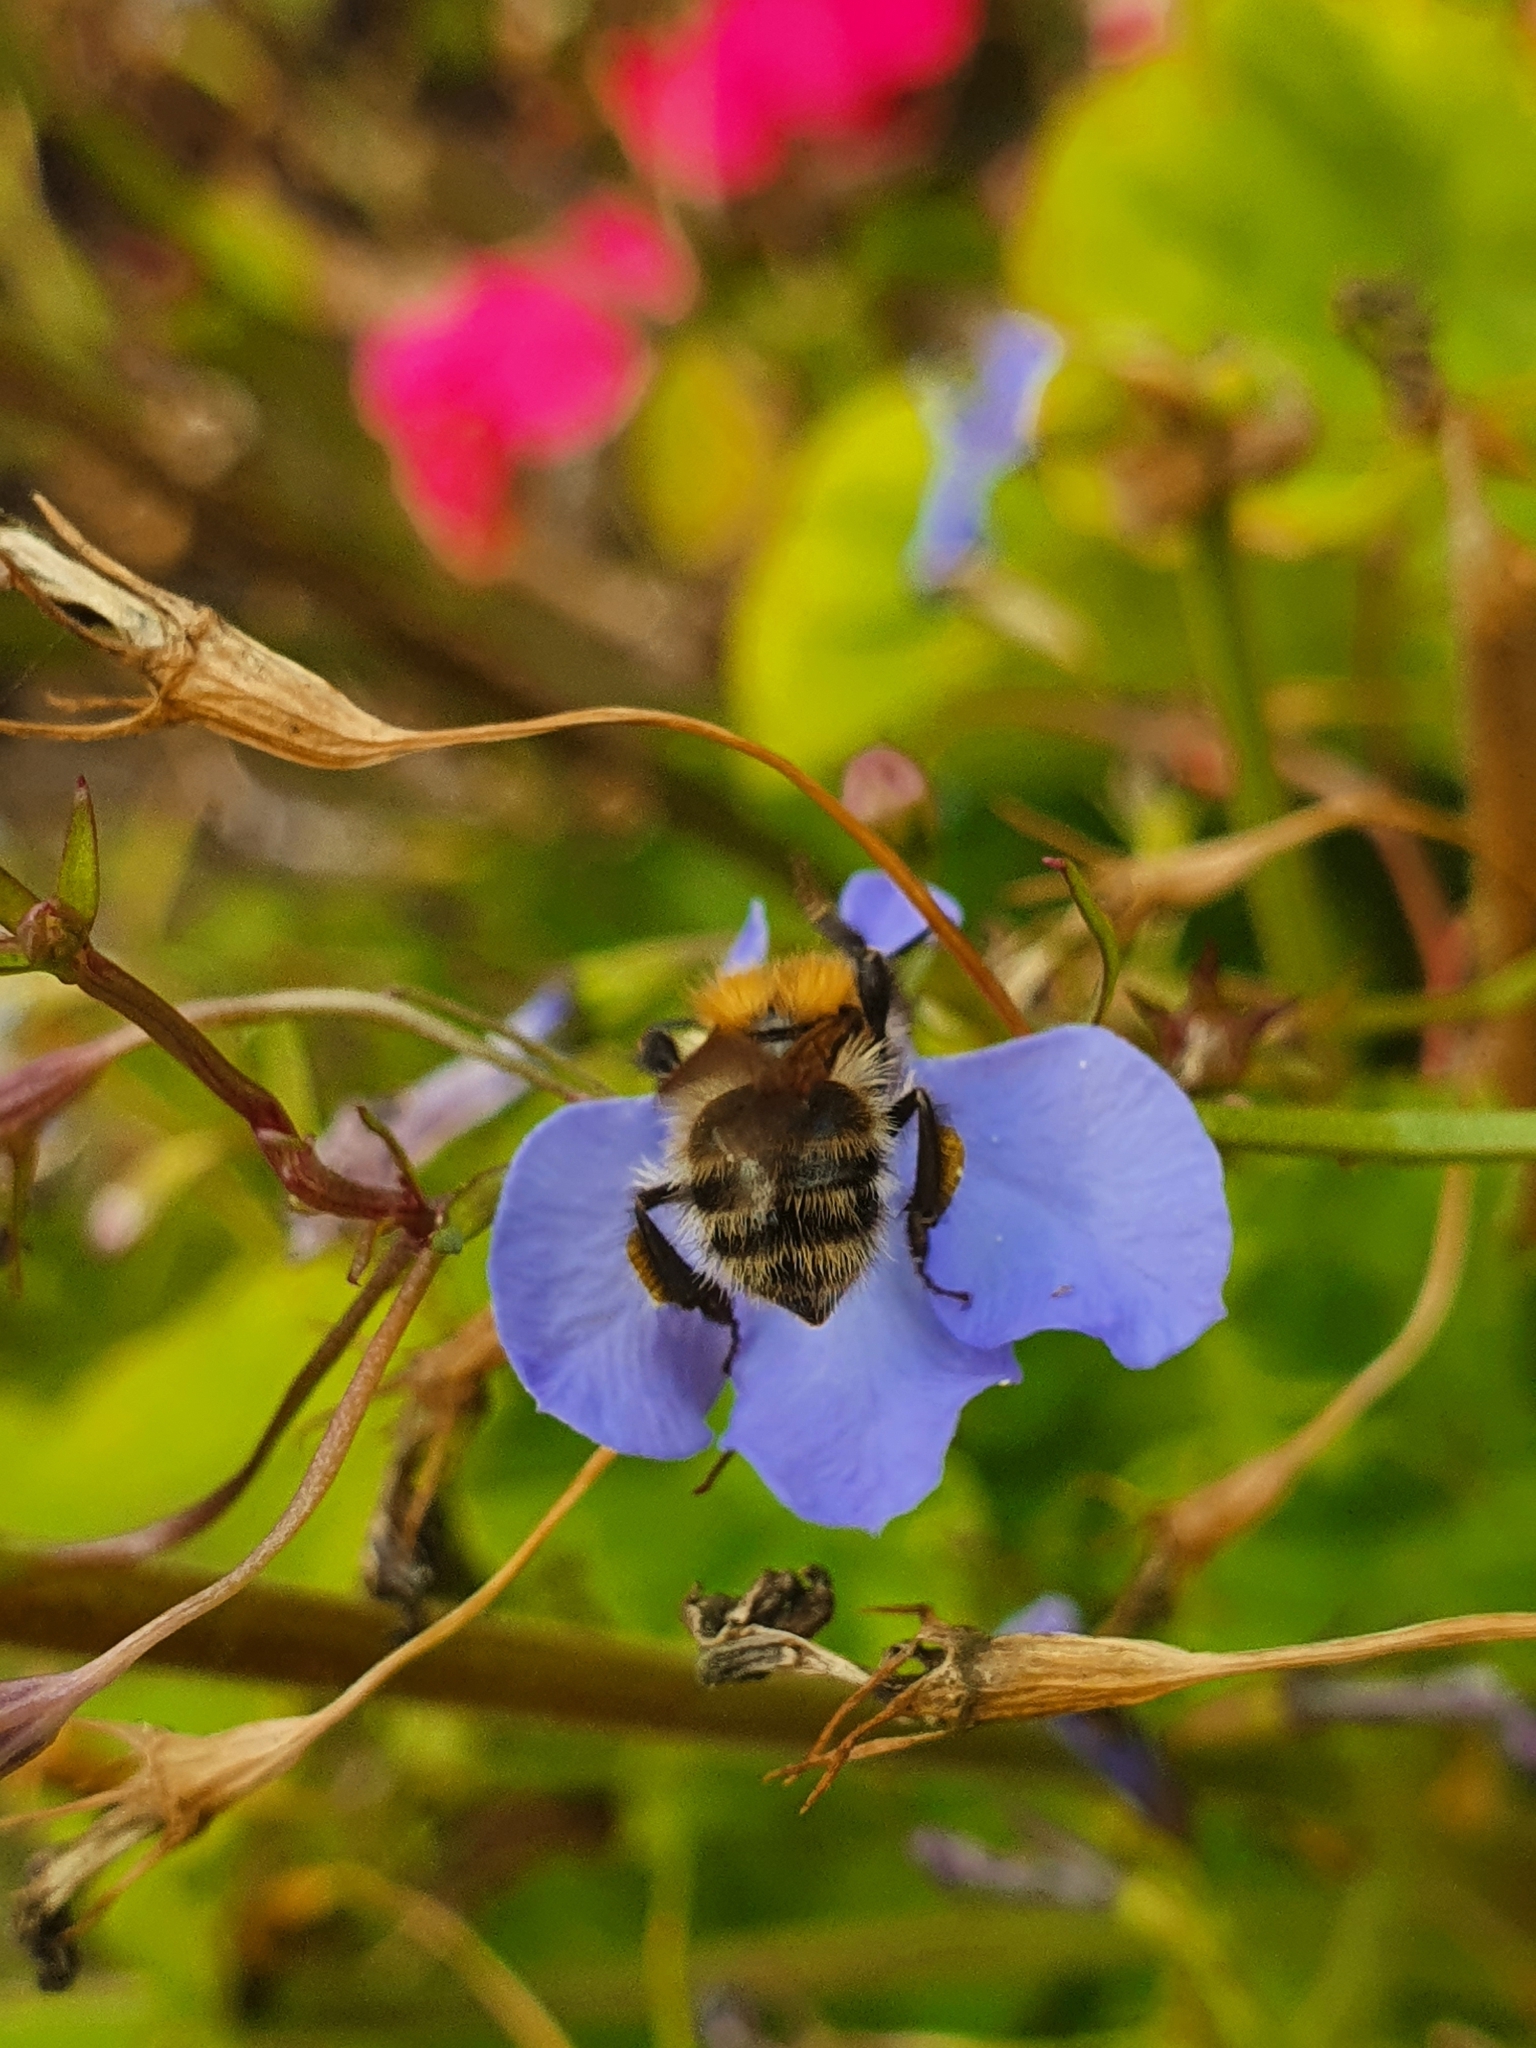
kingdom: Animalia
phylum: Arthropoda
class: Insecta
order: Hymenoptera
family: Apidae
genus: Bombus
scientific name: Bombus pascuorum
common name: Common carder bee
